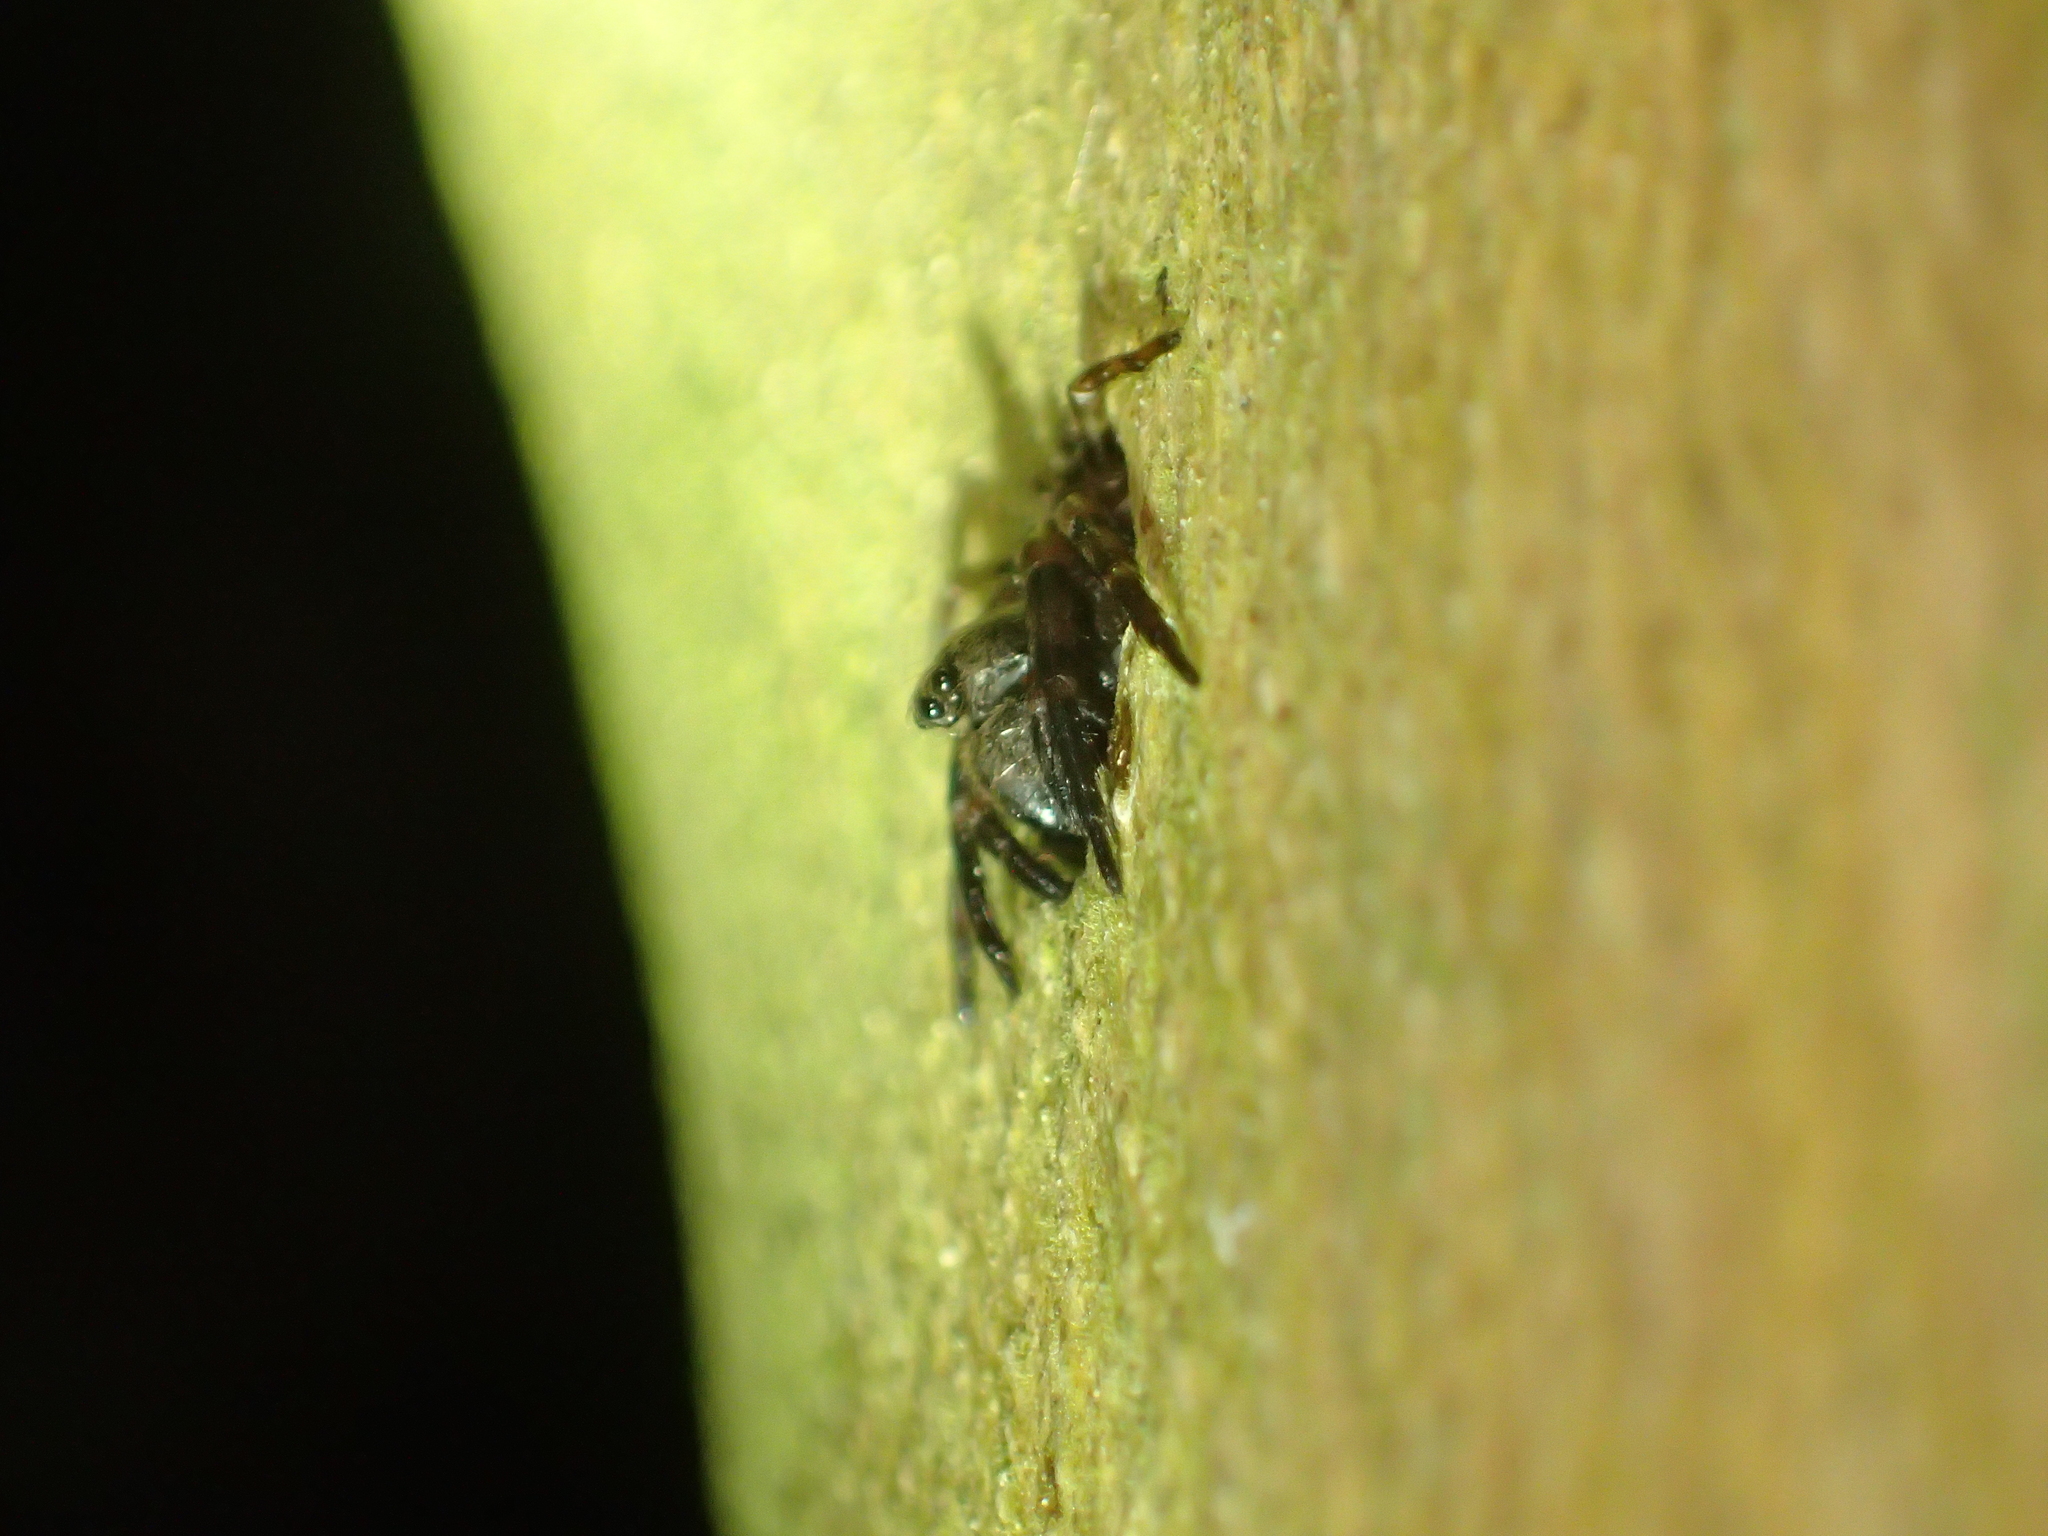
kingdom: Animalia
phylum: Arthropoda
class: Arachnida
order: Araneae
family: Cycloctenidae
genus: Plectophanes
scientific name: Plectophanes
